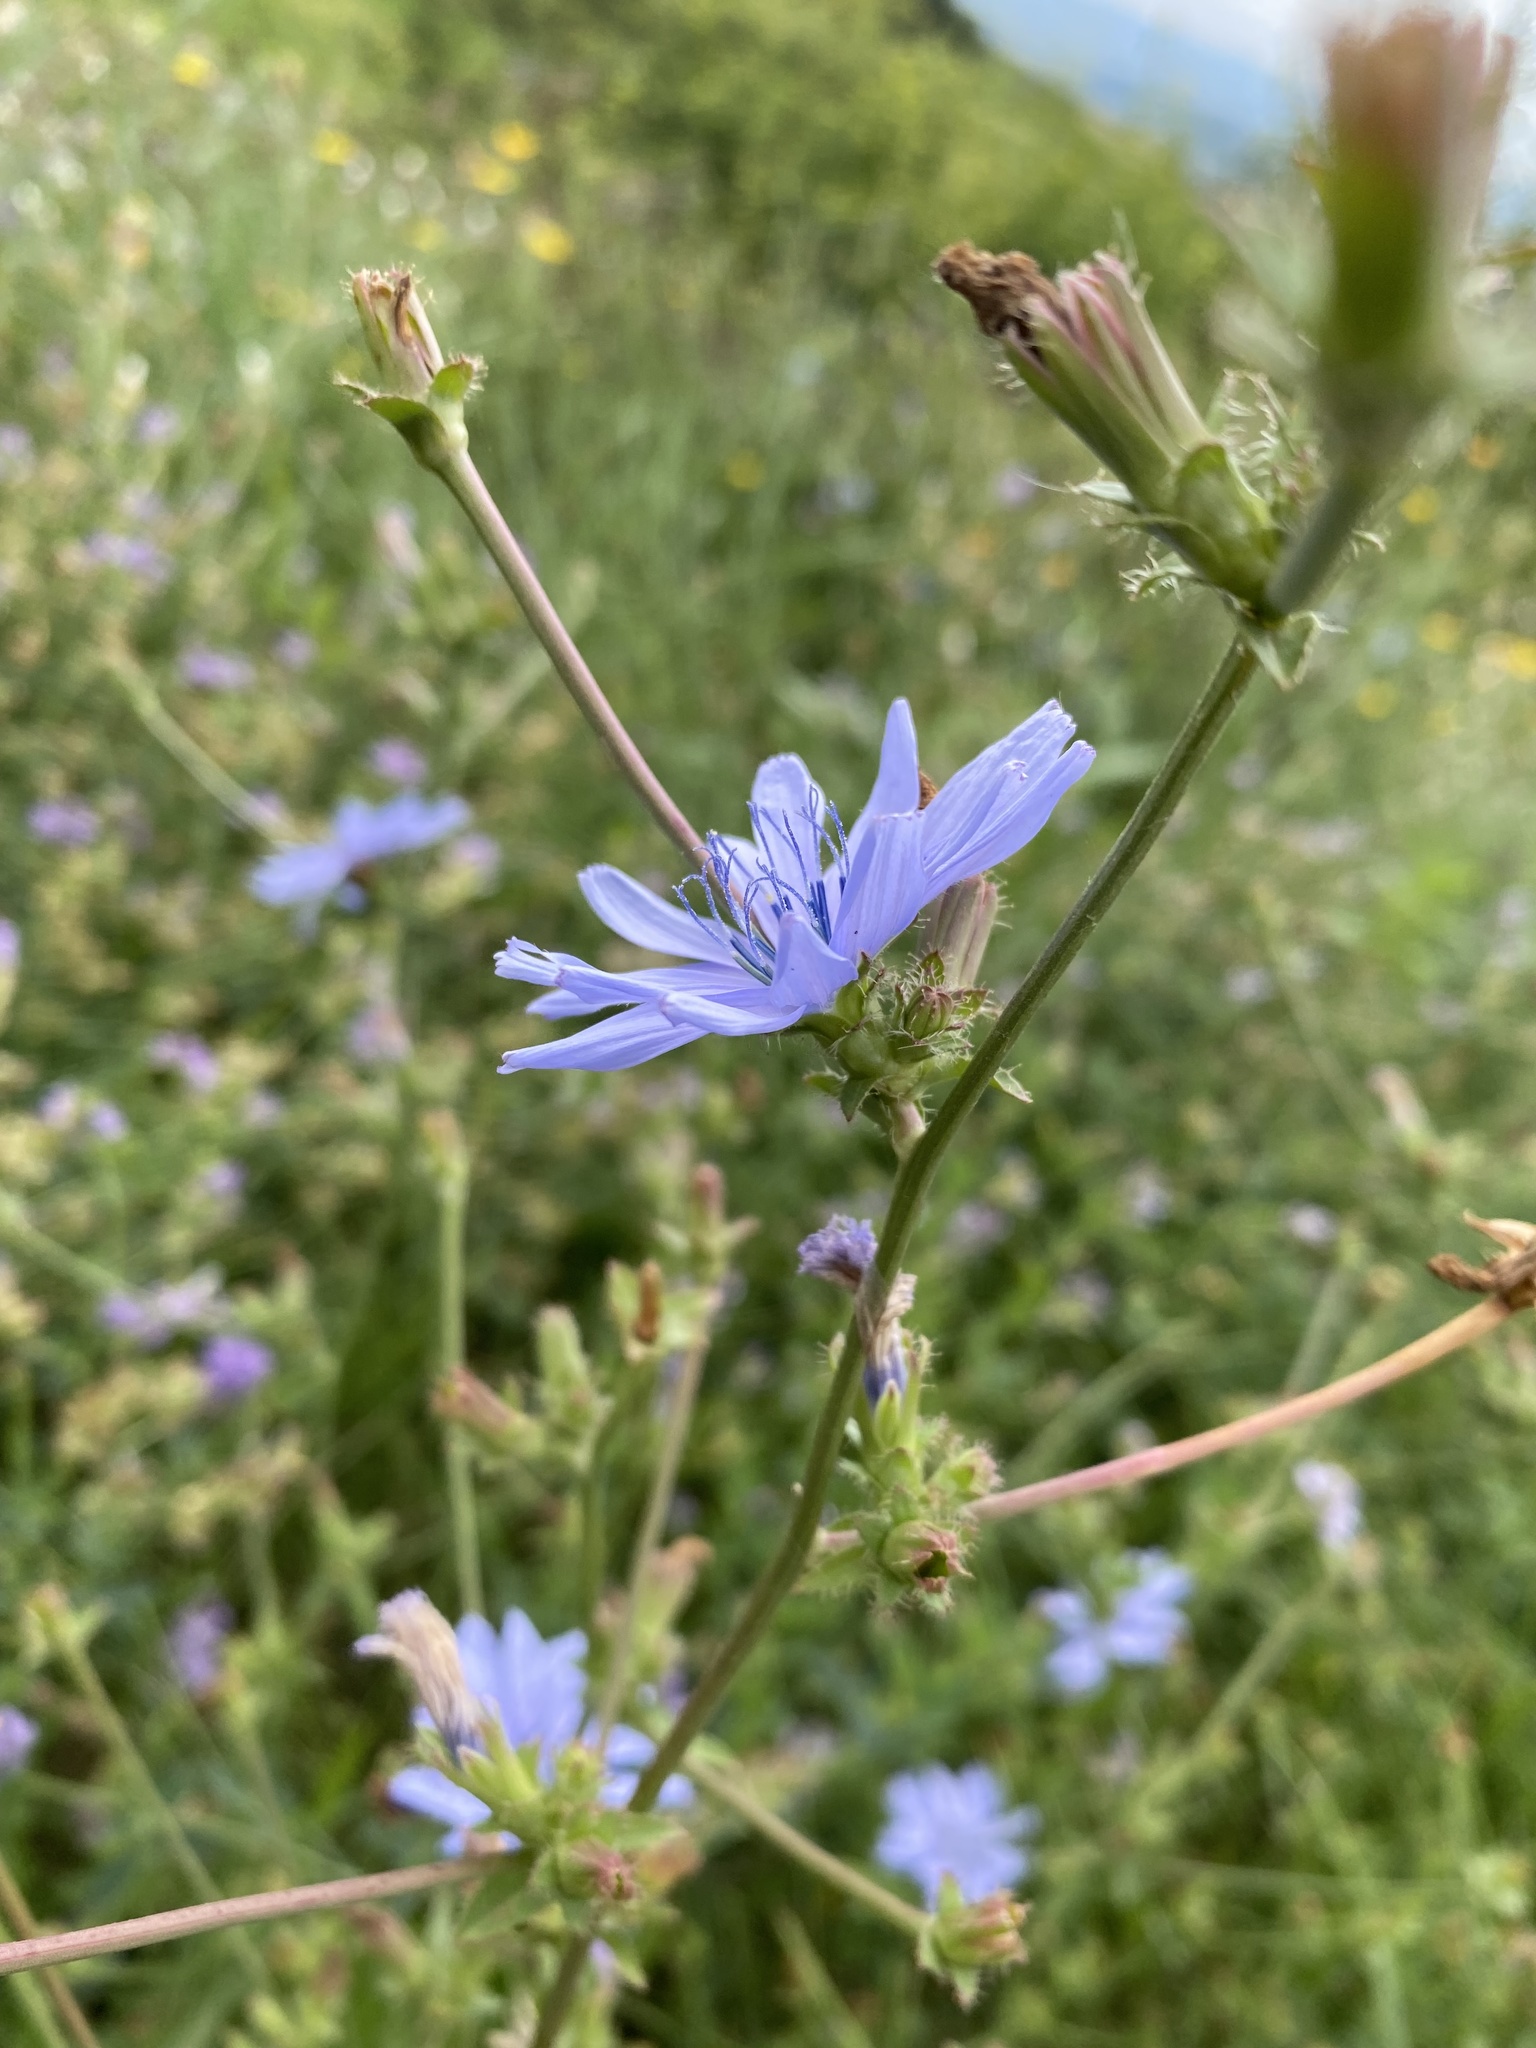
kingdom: Plantae
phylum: Tracheophyta
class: Magnoliopsida
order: Asterales
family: Asteraceae
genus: Cichorium
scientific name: Cichorium intybus
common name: Chicory
